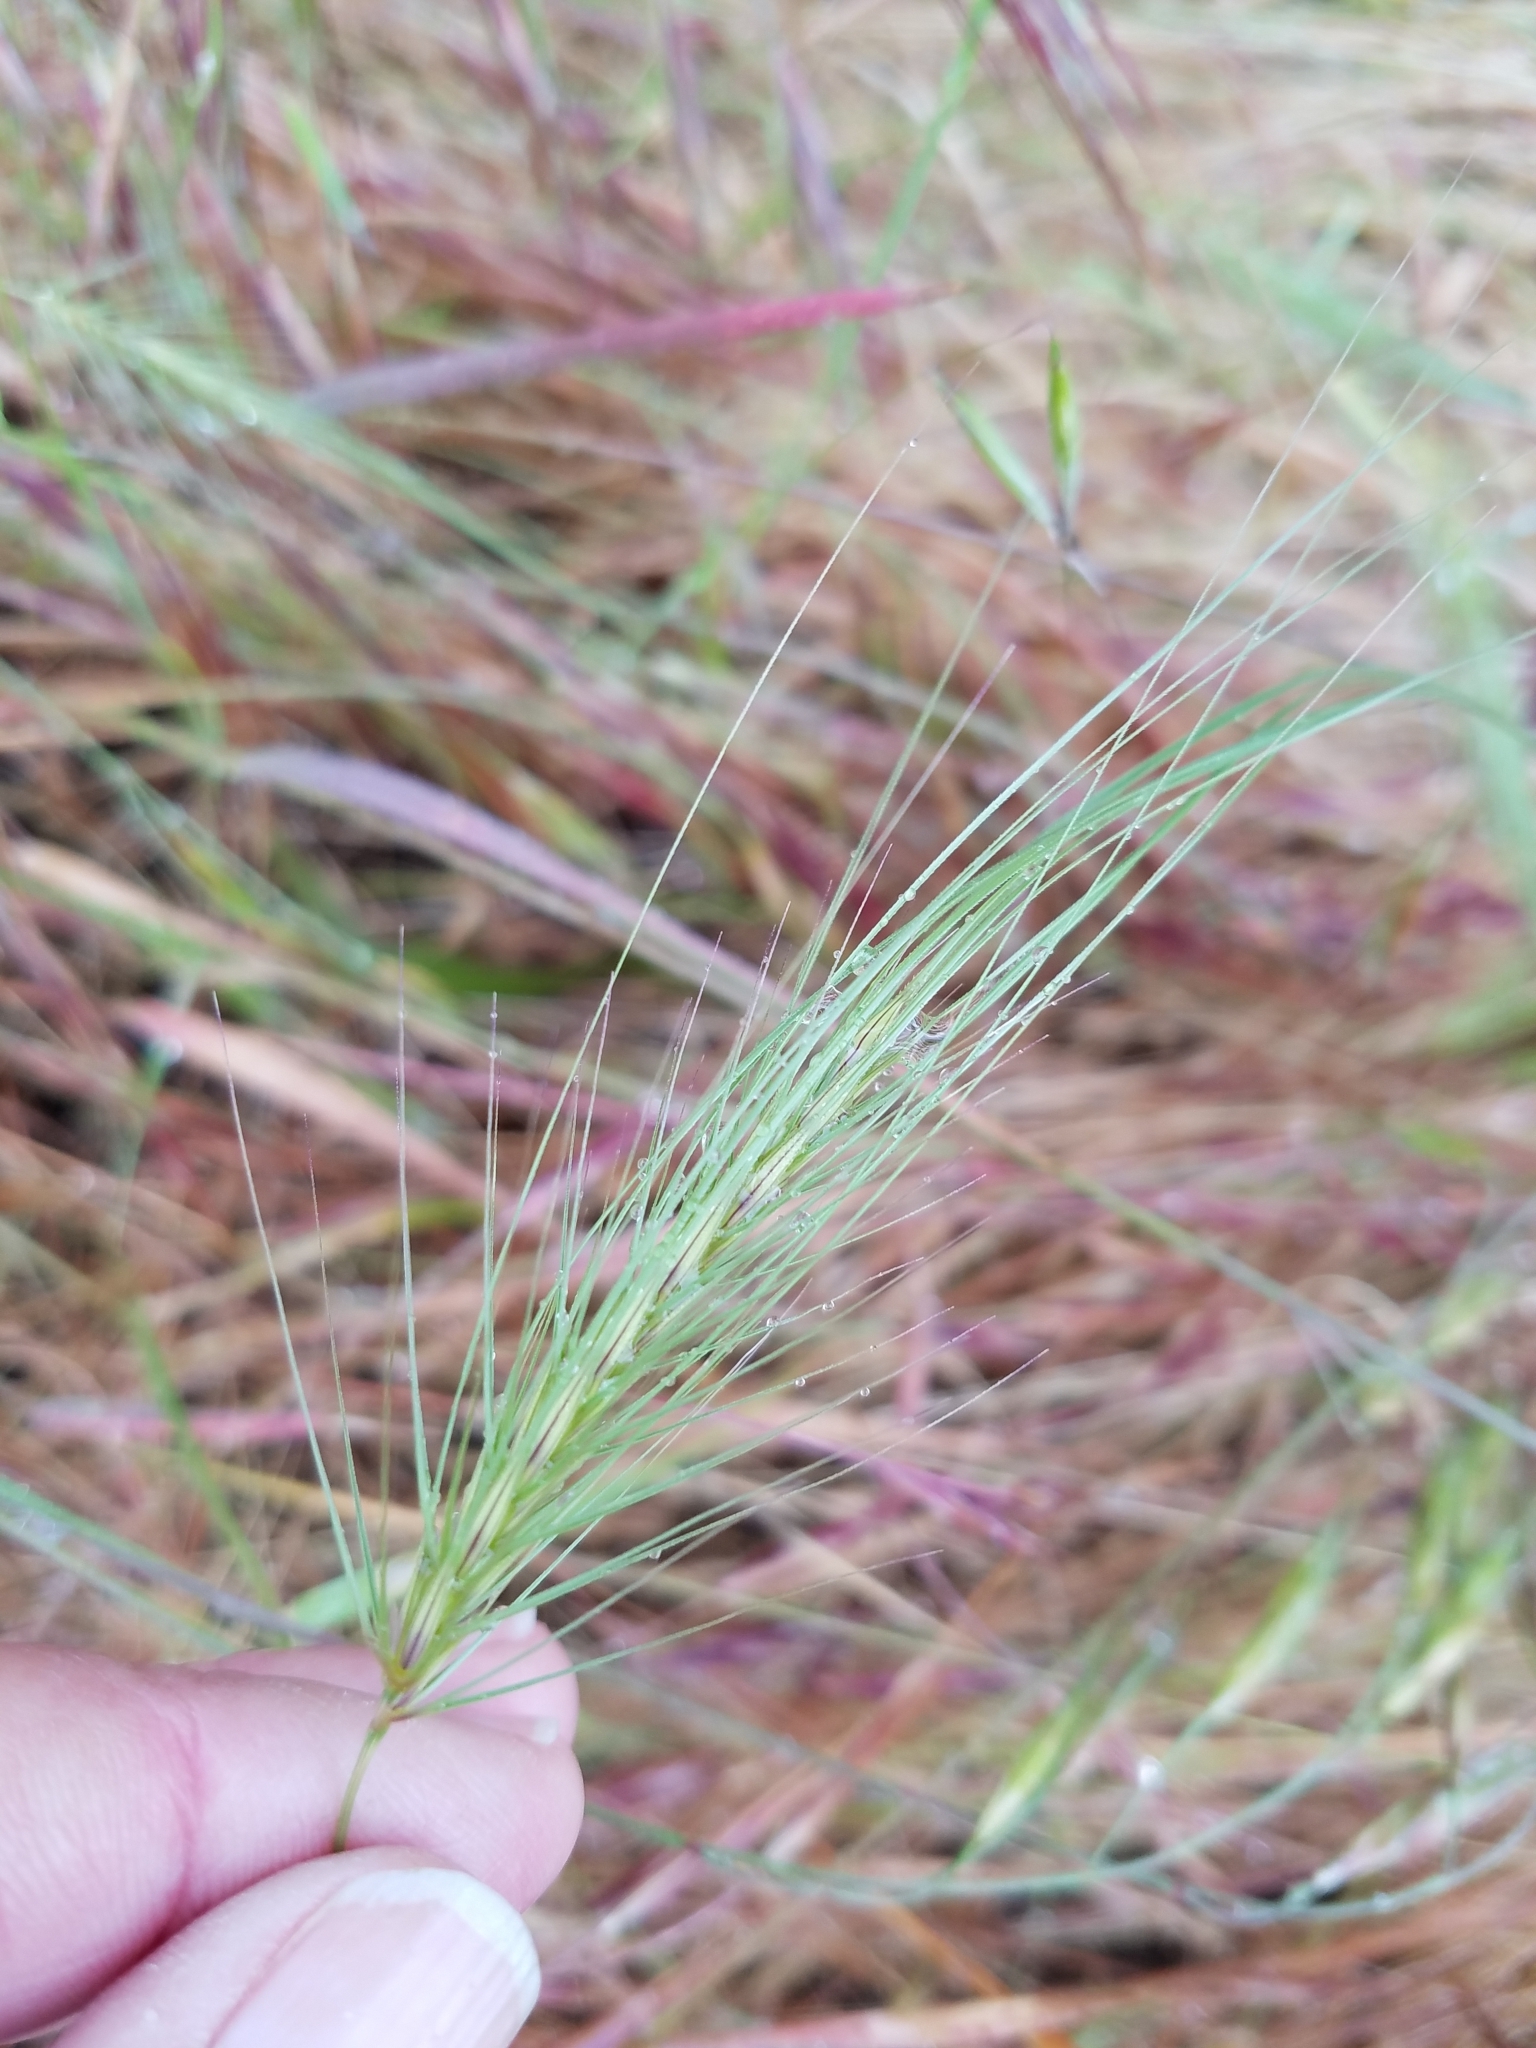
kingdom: Plantae
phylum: Tracheophyta
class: Liliopsida
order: Poales
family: Poaceae
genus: Taeniatherum
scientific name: Taeniatherum caput-medusae
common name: Medusahead
